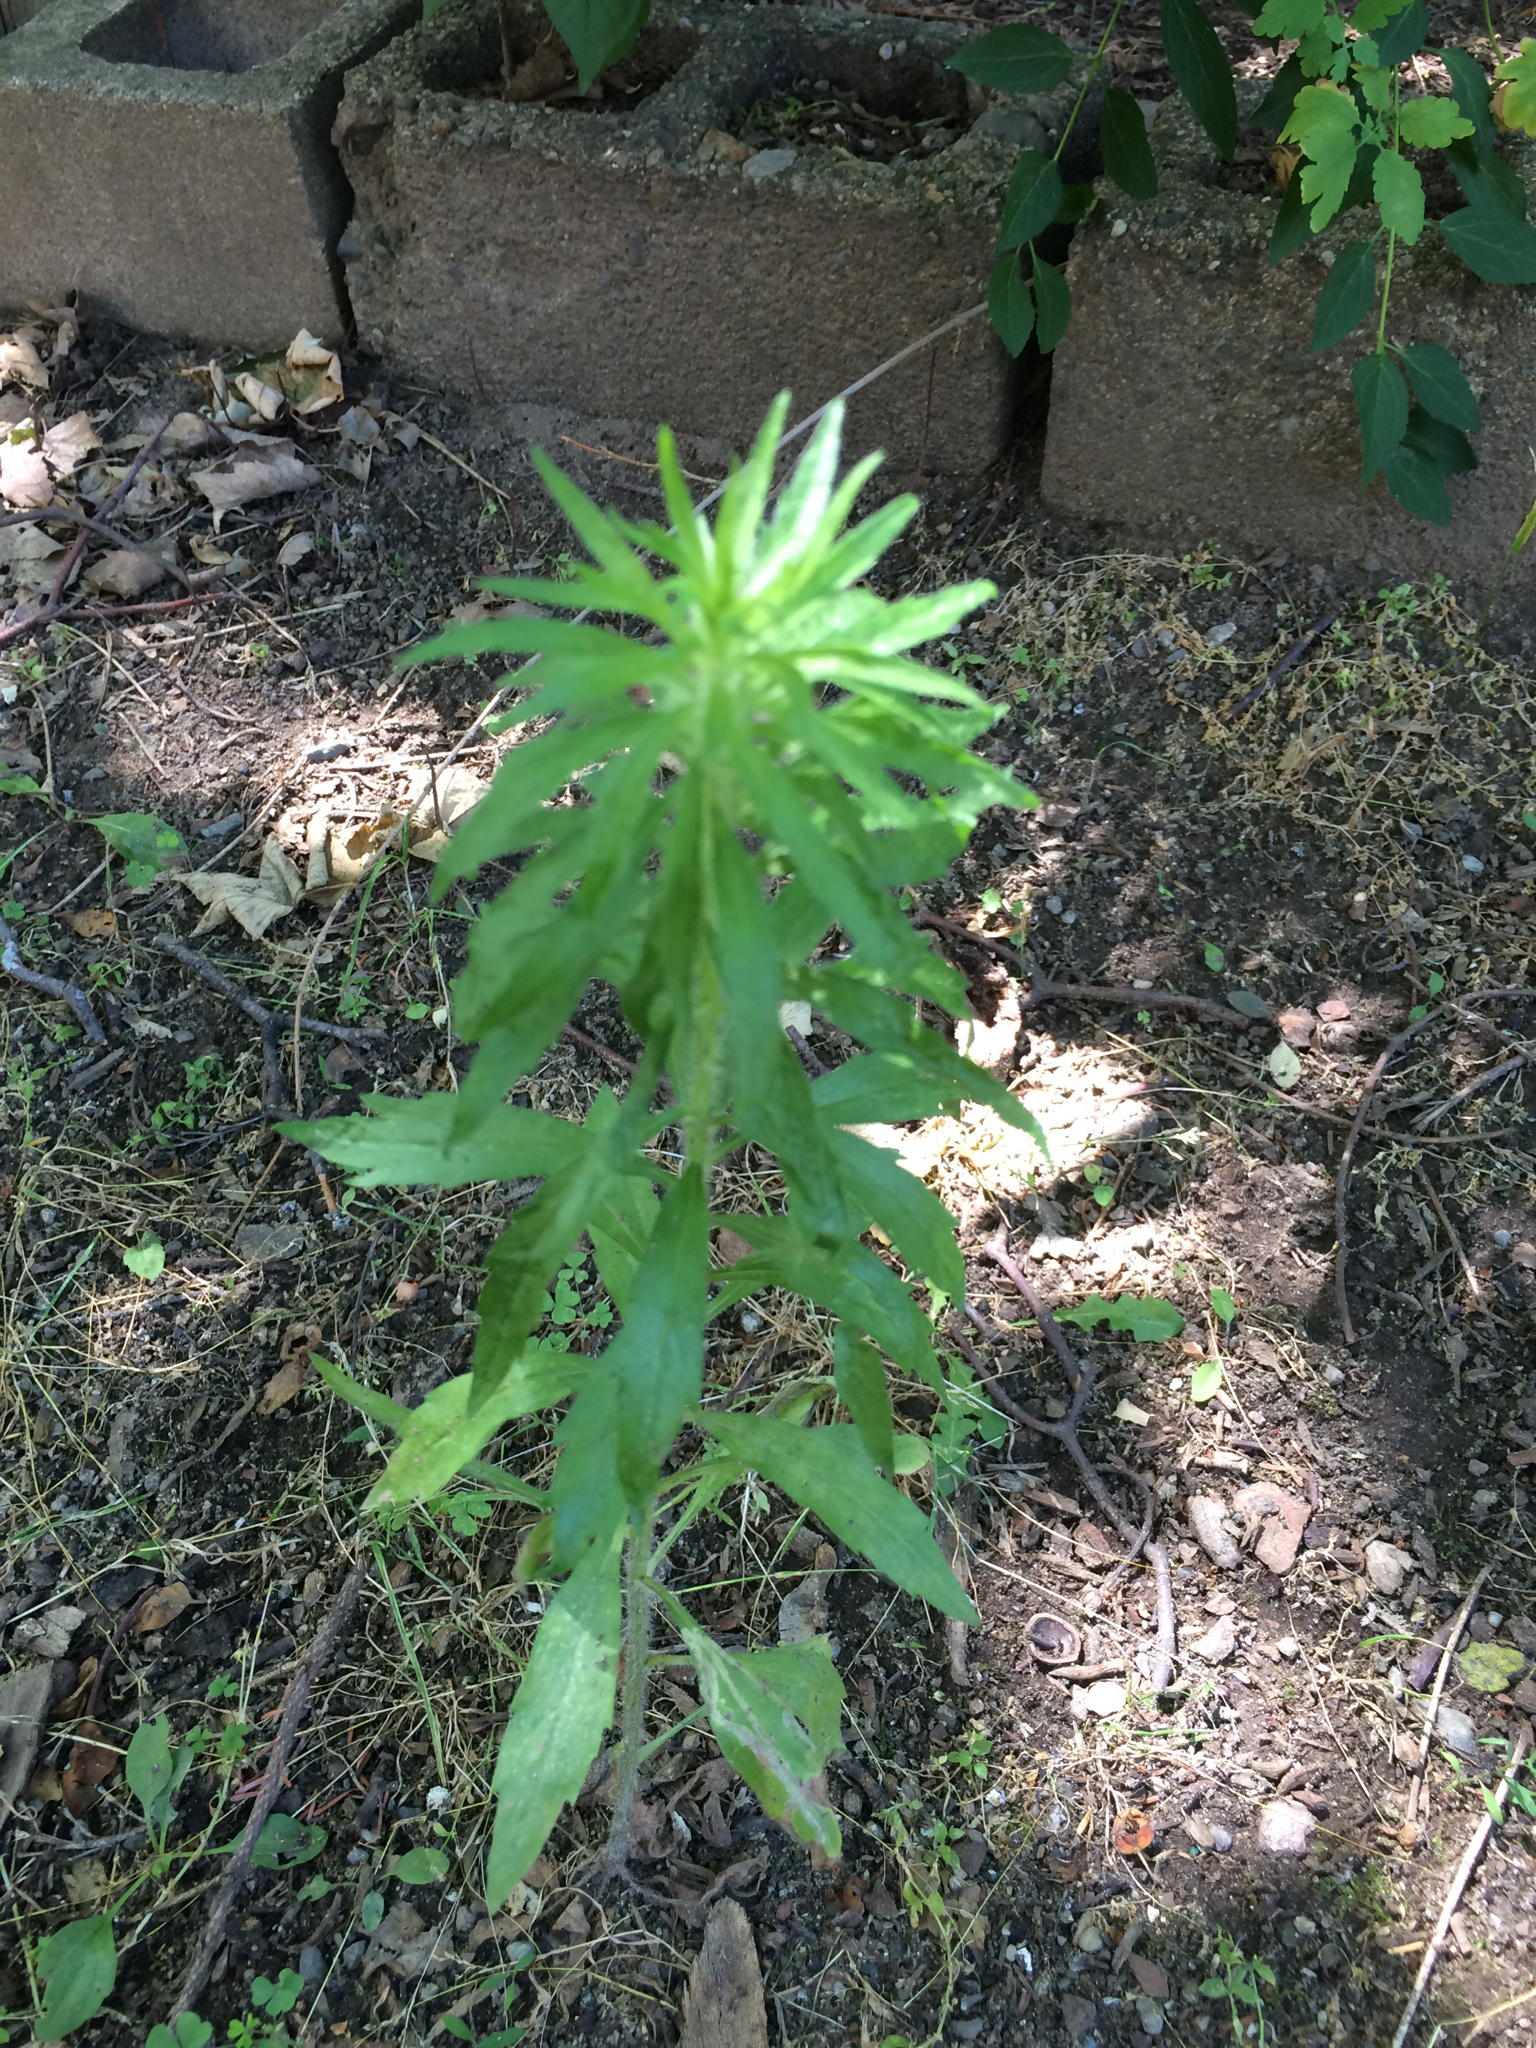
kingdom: Plantae
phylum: Tracheophyta
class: Magnoliopsida
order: Asterales
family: Asteraceae
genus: Erigeron
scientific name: Erigeron canadensis
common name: Canadian fleabane
